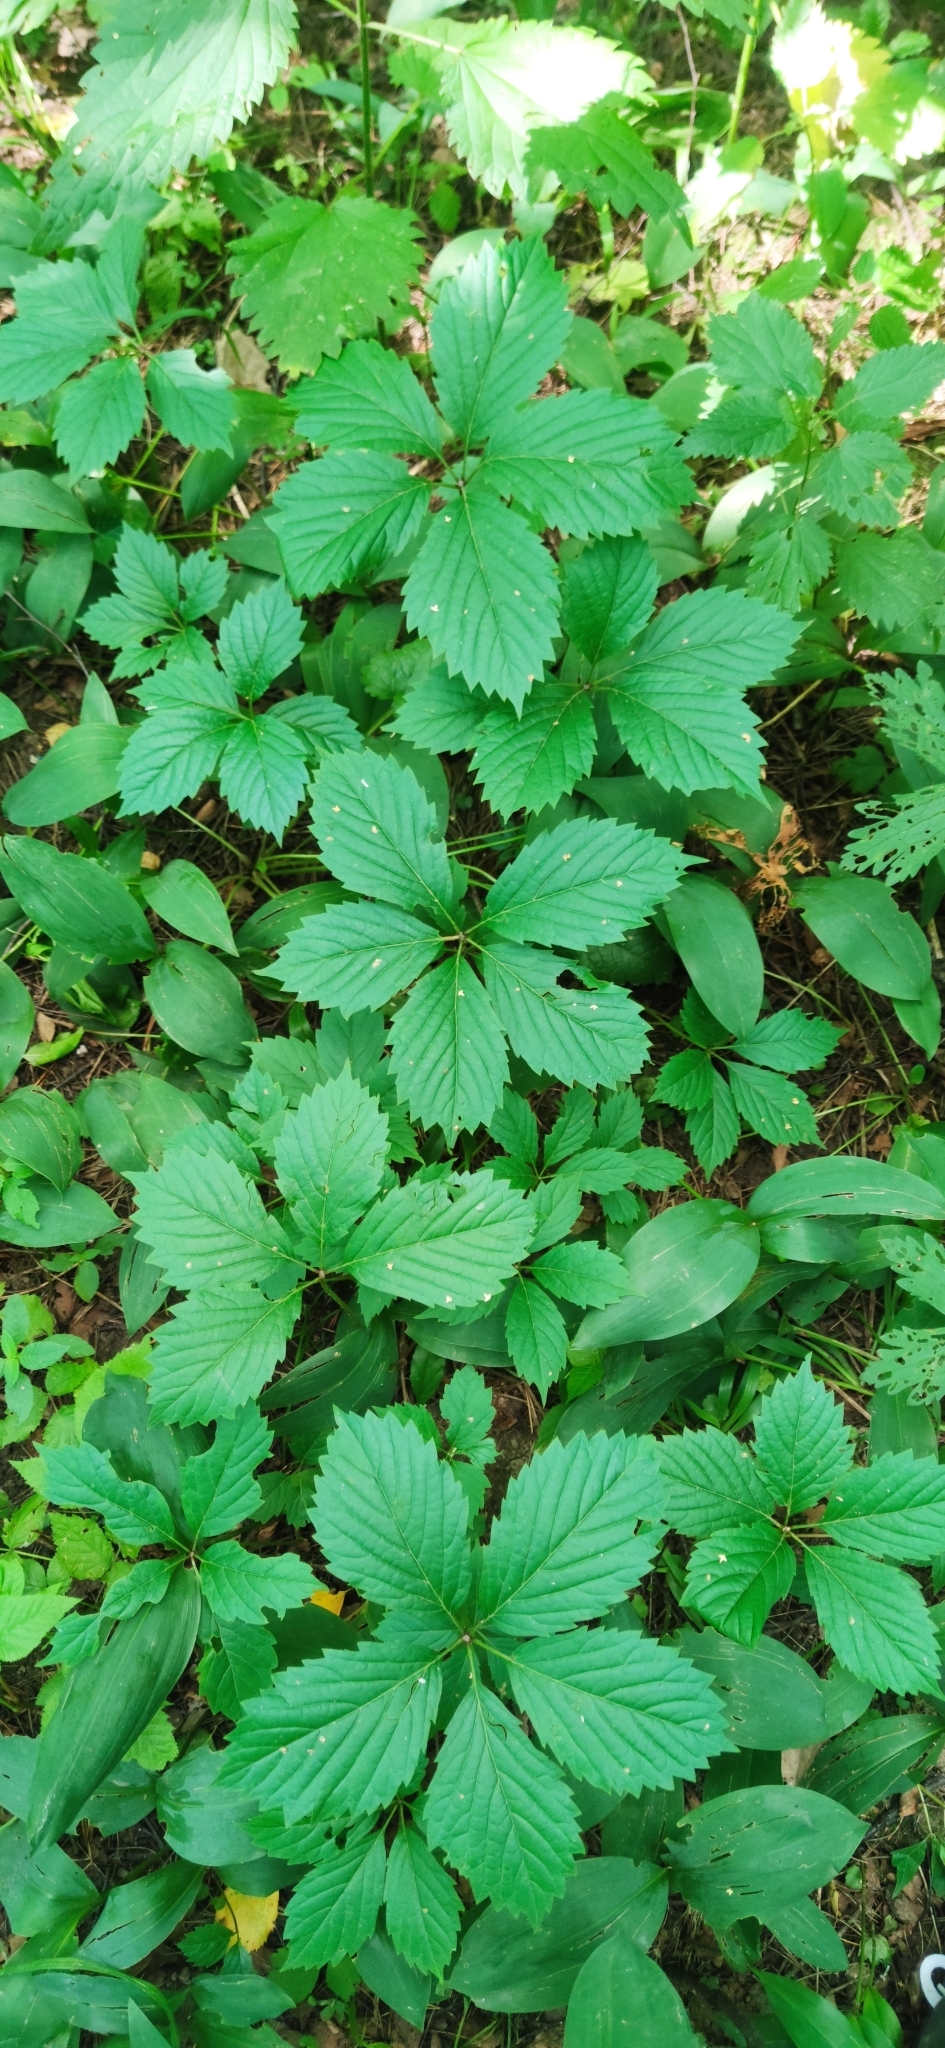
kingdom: Plantae
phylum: Tracheophyta
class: Magnoliopsida
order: Vitales
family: Vitaceae
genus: Parthenocissus
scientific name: Parthenocissus inserta
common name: False virginia-creeper
